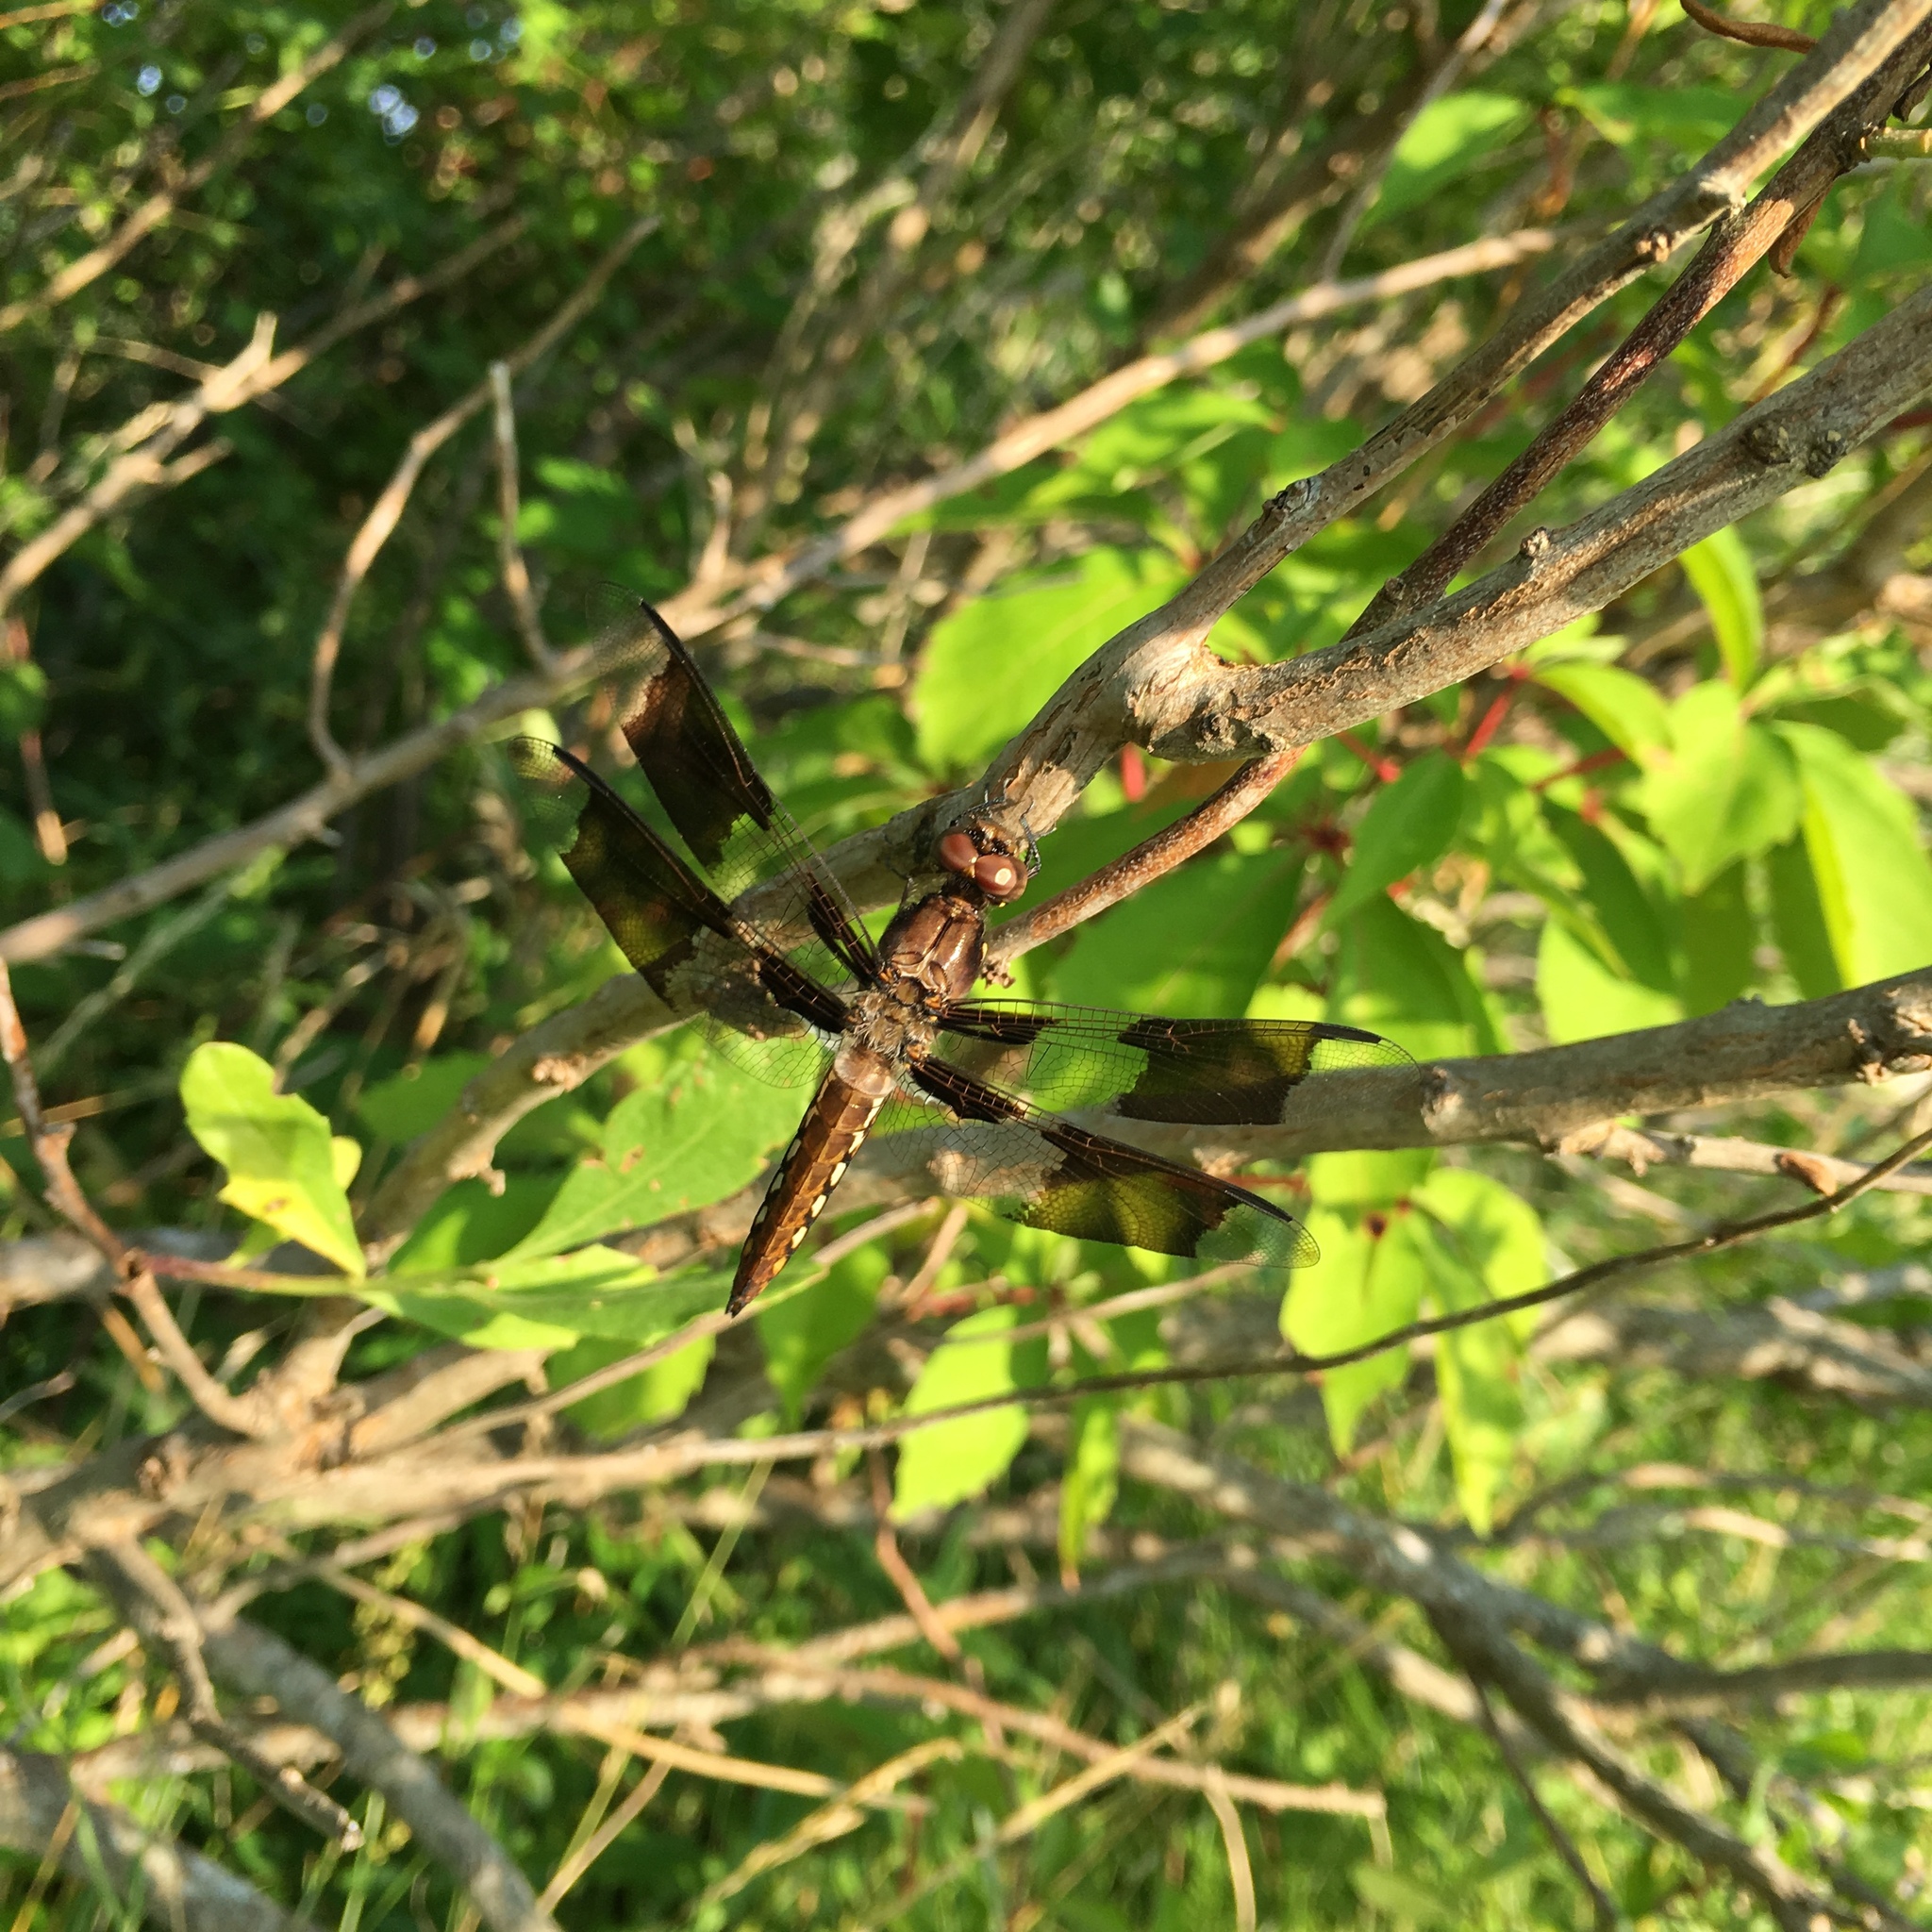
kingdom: Animalia
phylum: Arthropoda
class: Insecta
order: Odonata
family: Libellulidae
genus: Plathemis
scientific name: Plathemis lydia
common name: Common whitetail
